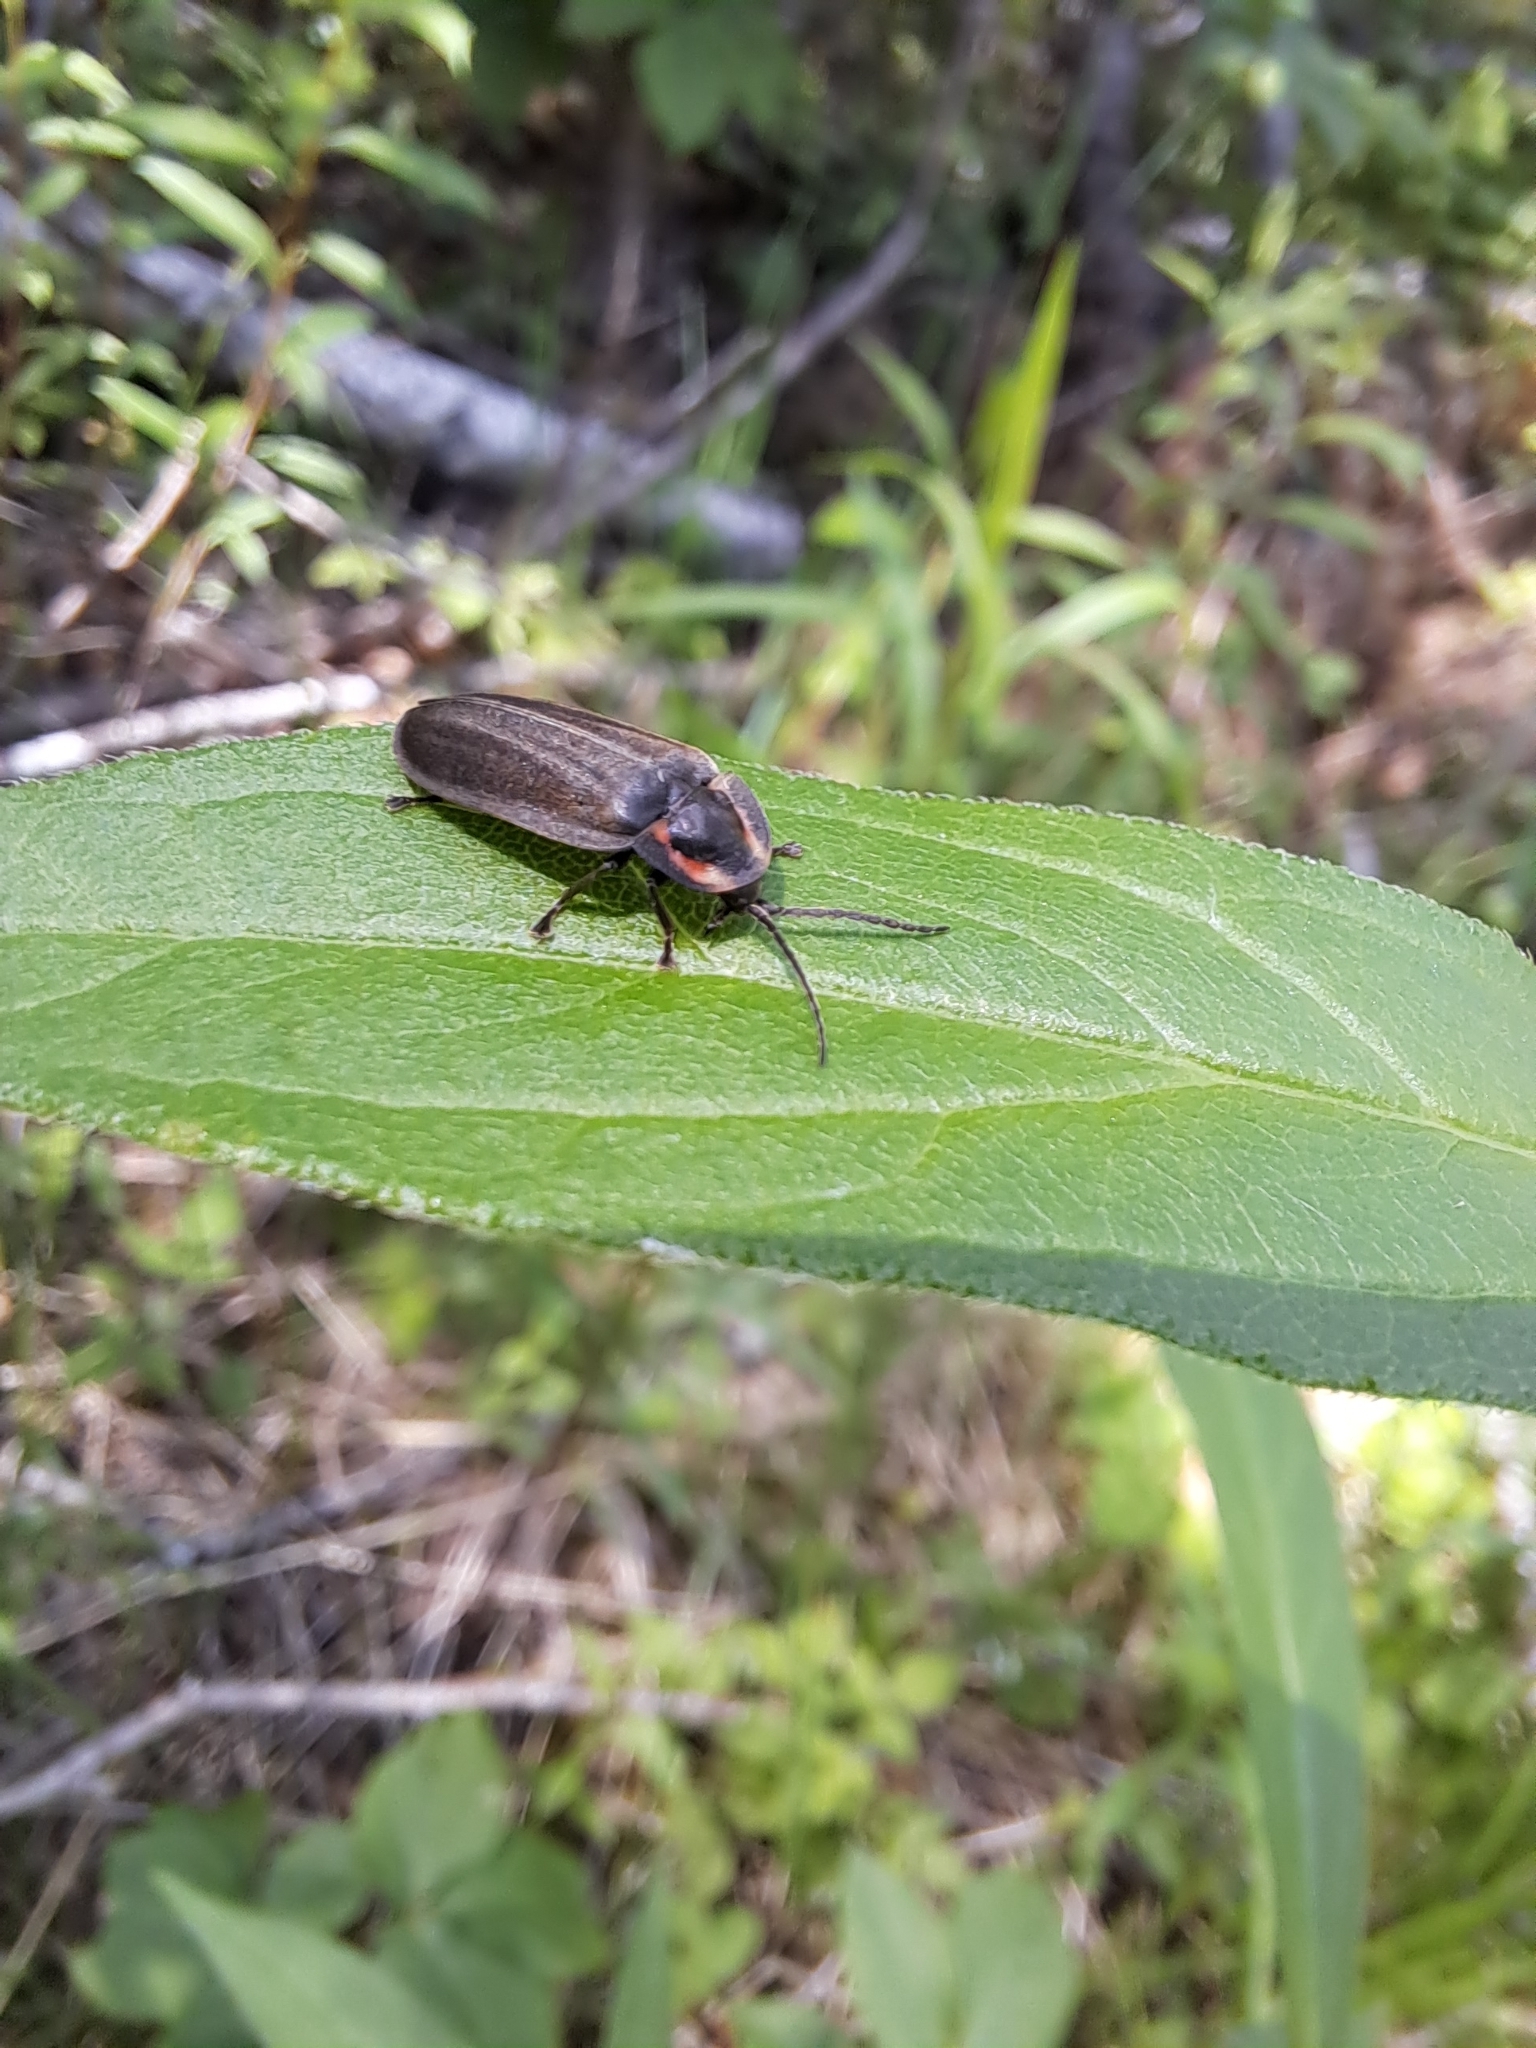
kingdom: Animalia
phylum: Arthropoda
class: Insecta
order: Coleoptera
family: Lampyridae
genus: Photinus
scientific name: Photinus corrusca
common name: Winter firefly
